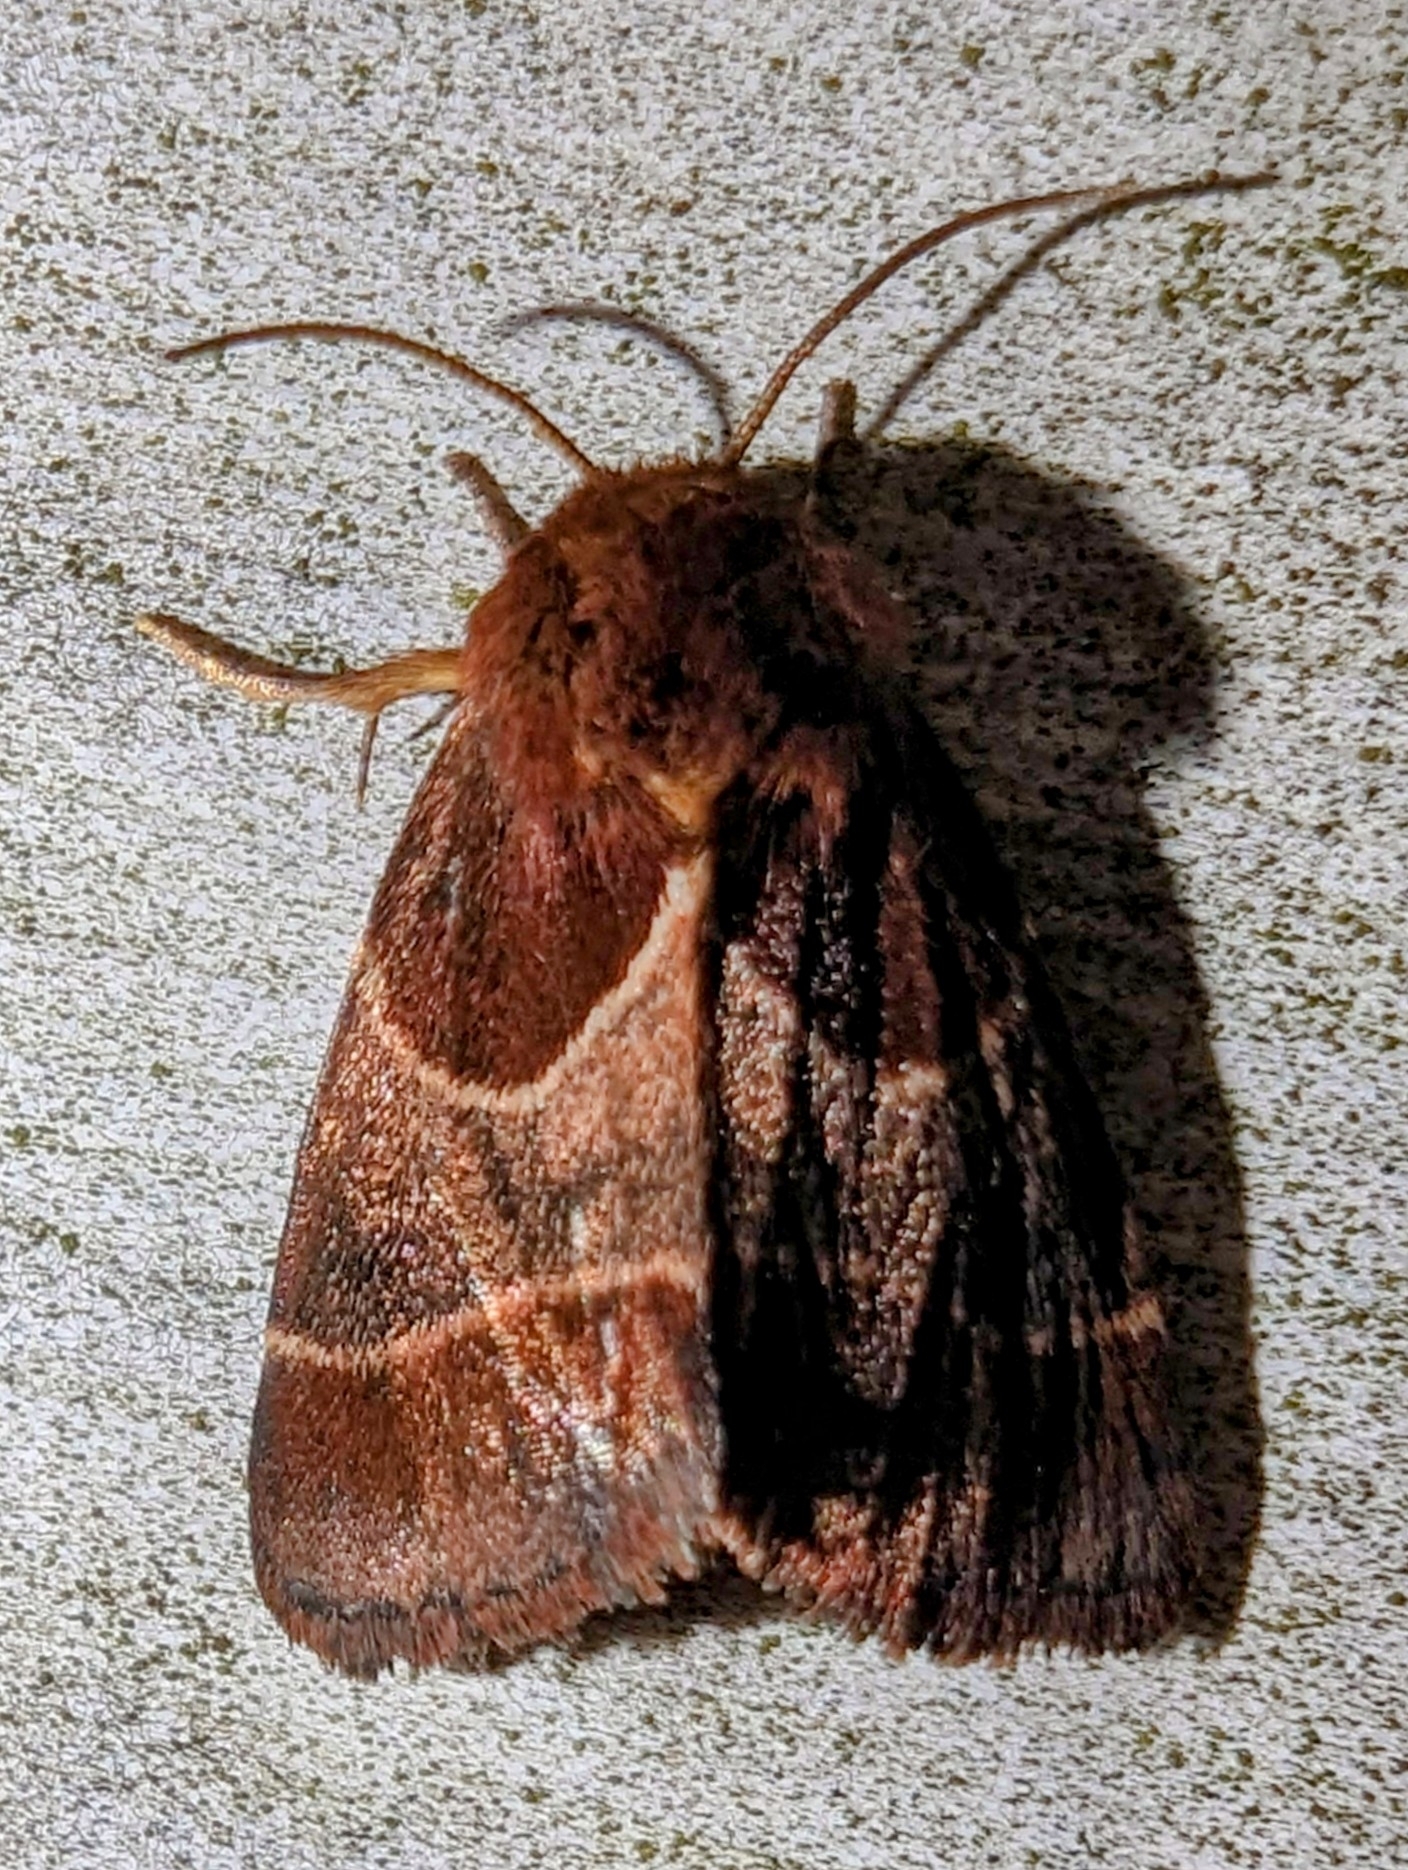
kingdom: Animalia
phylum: Arthropoda
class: Insecta
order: Lepidoptera
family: Noctuidae
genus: Schinia
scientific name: Schinia arcigera
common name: Arcigera flower moth
